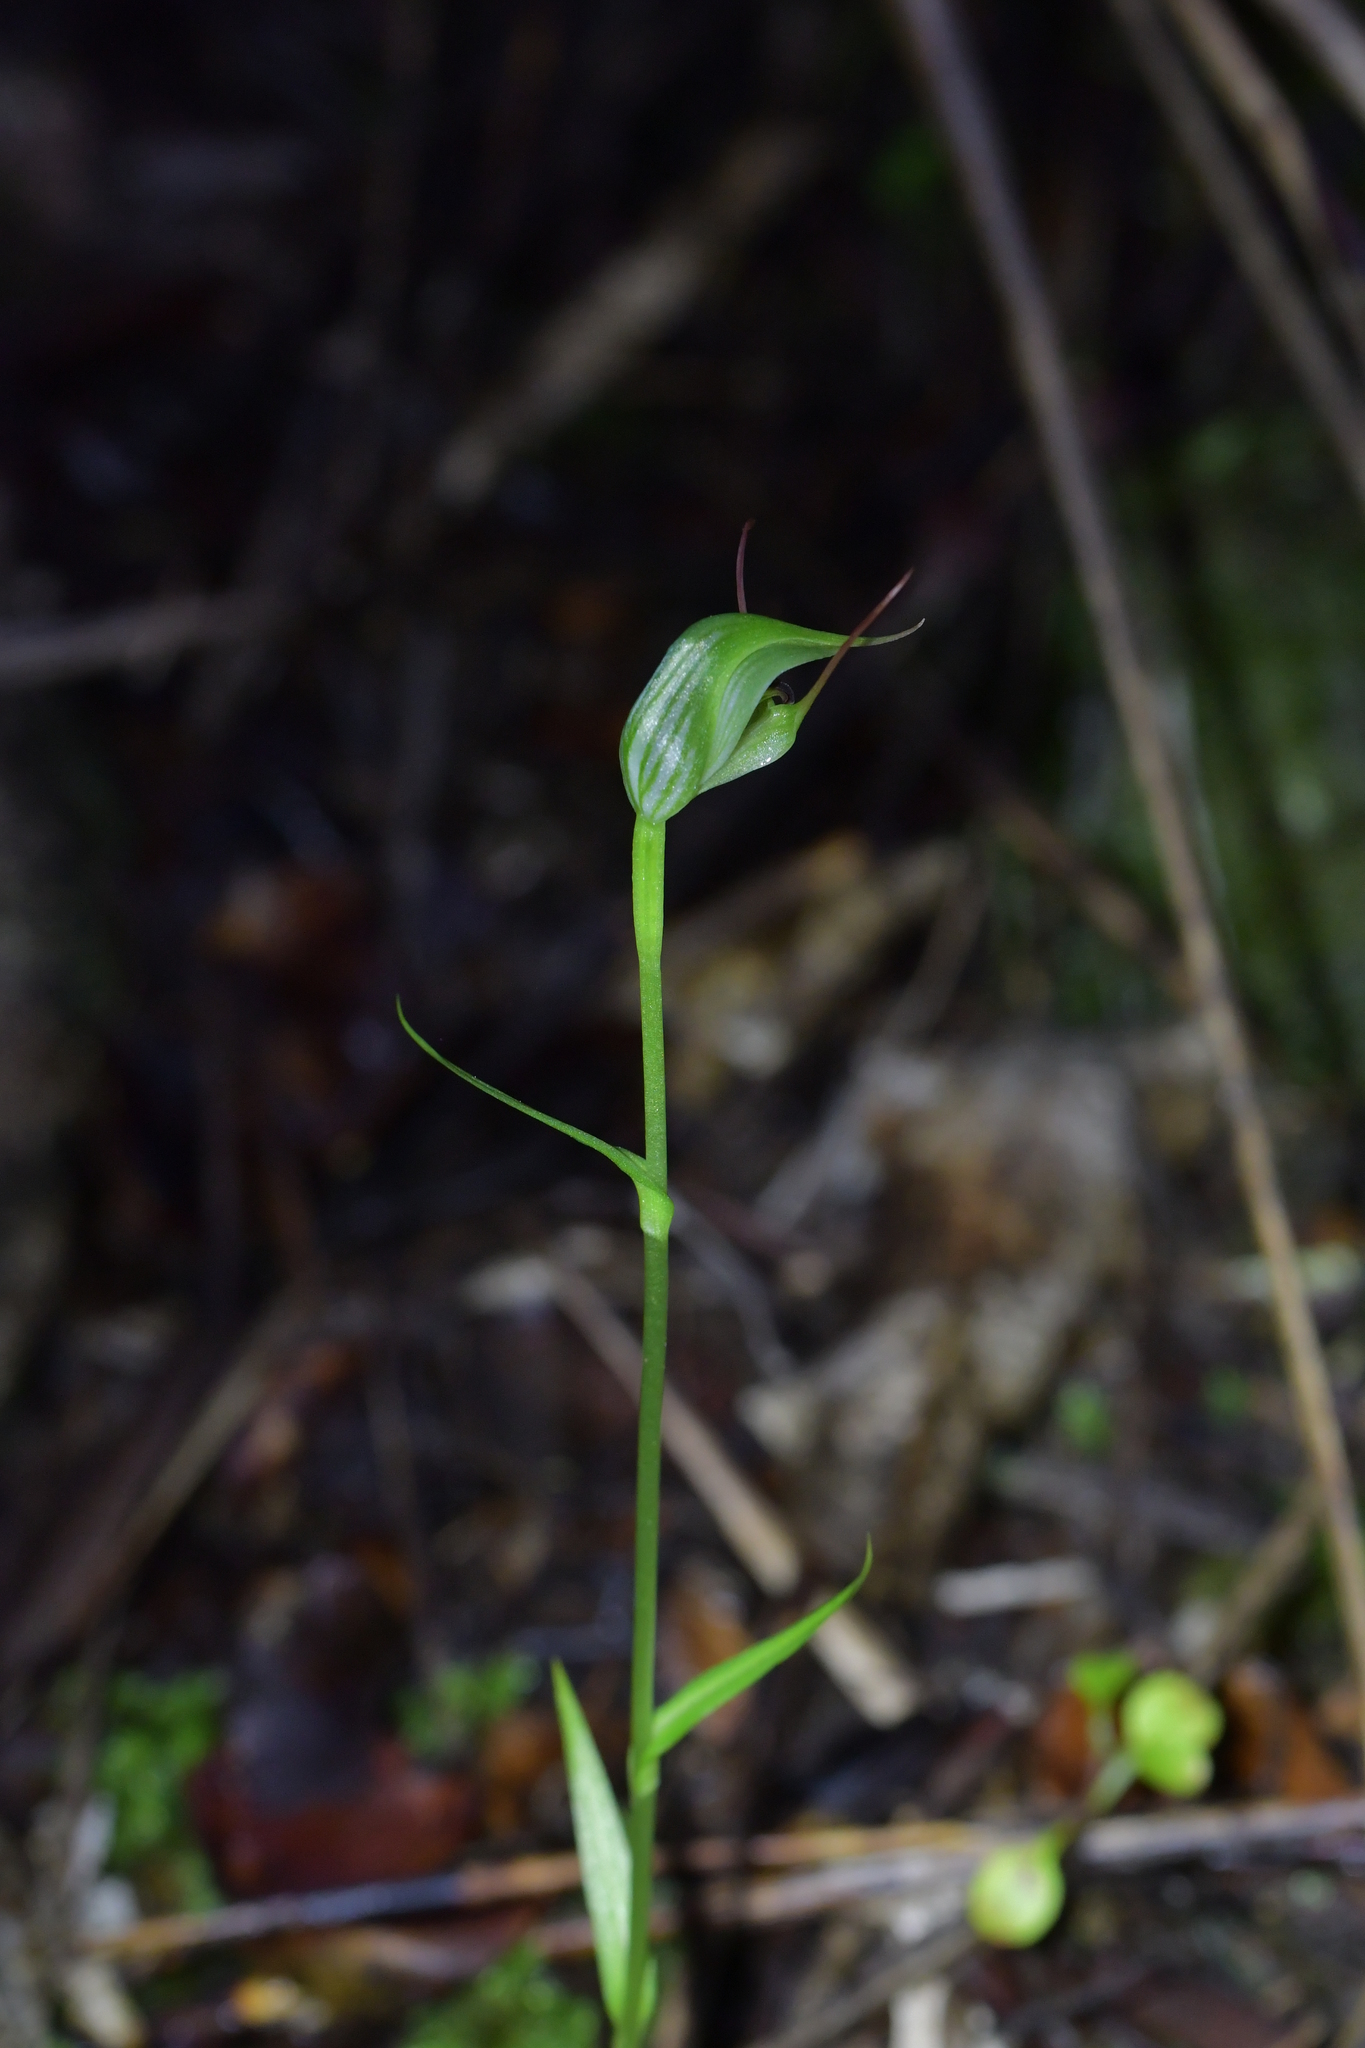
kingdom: Plantae
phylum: Tracheophyta
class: Liliopsida
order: Asparagales
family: Orchidaceae
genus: Pterostylis
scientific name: Pterostylis agathicola
